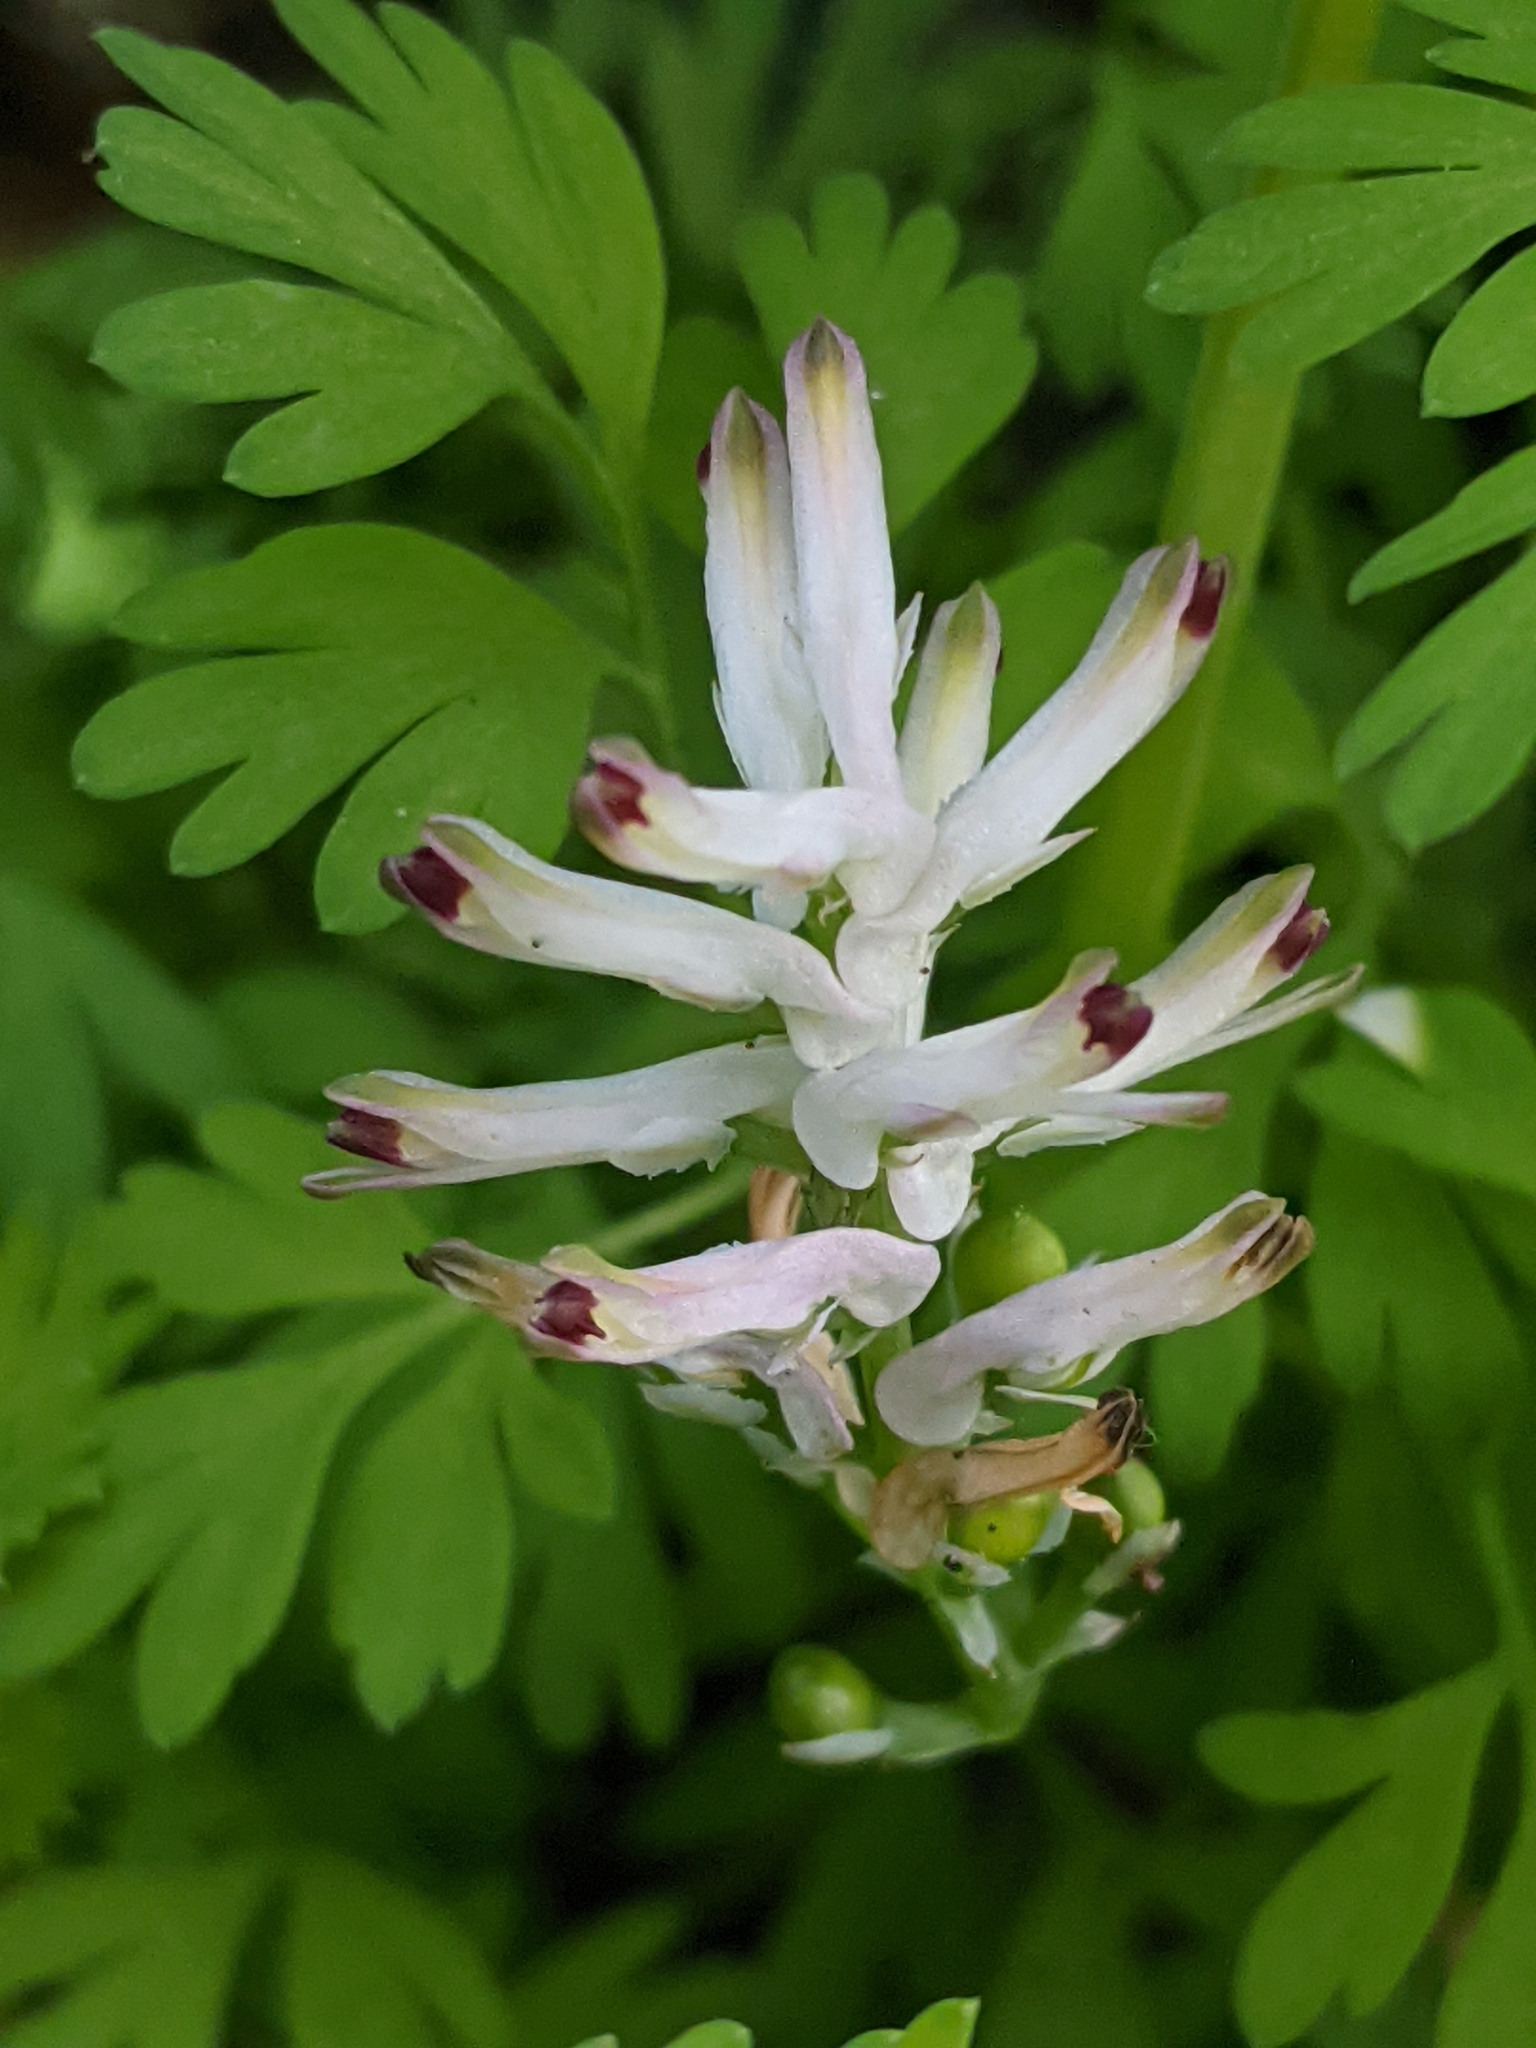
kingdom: Plantae
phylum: Tracheophyta
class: Magnoliopsida
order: Ranunculales
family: Papaveraceae
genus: Fumaria
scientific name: Fumaria bastardii
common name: Tall ramping-fumitory
